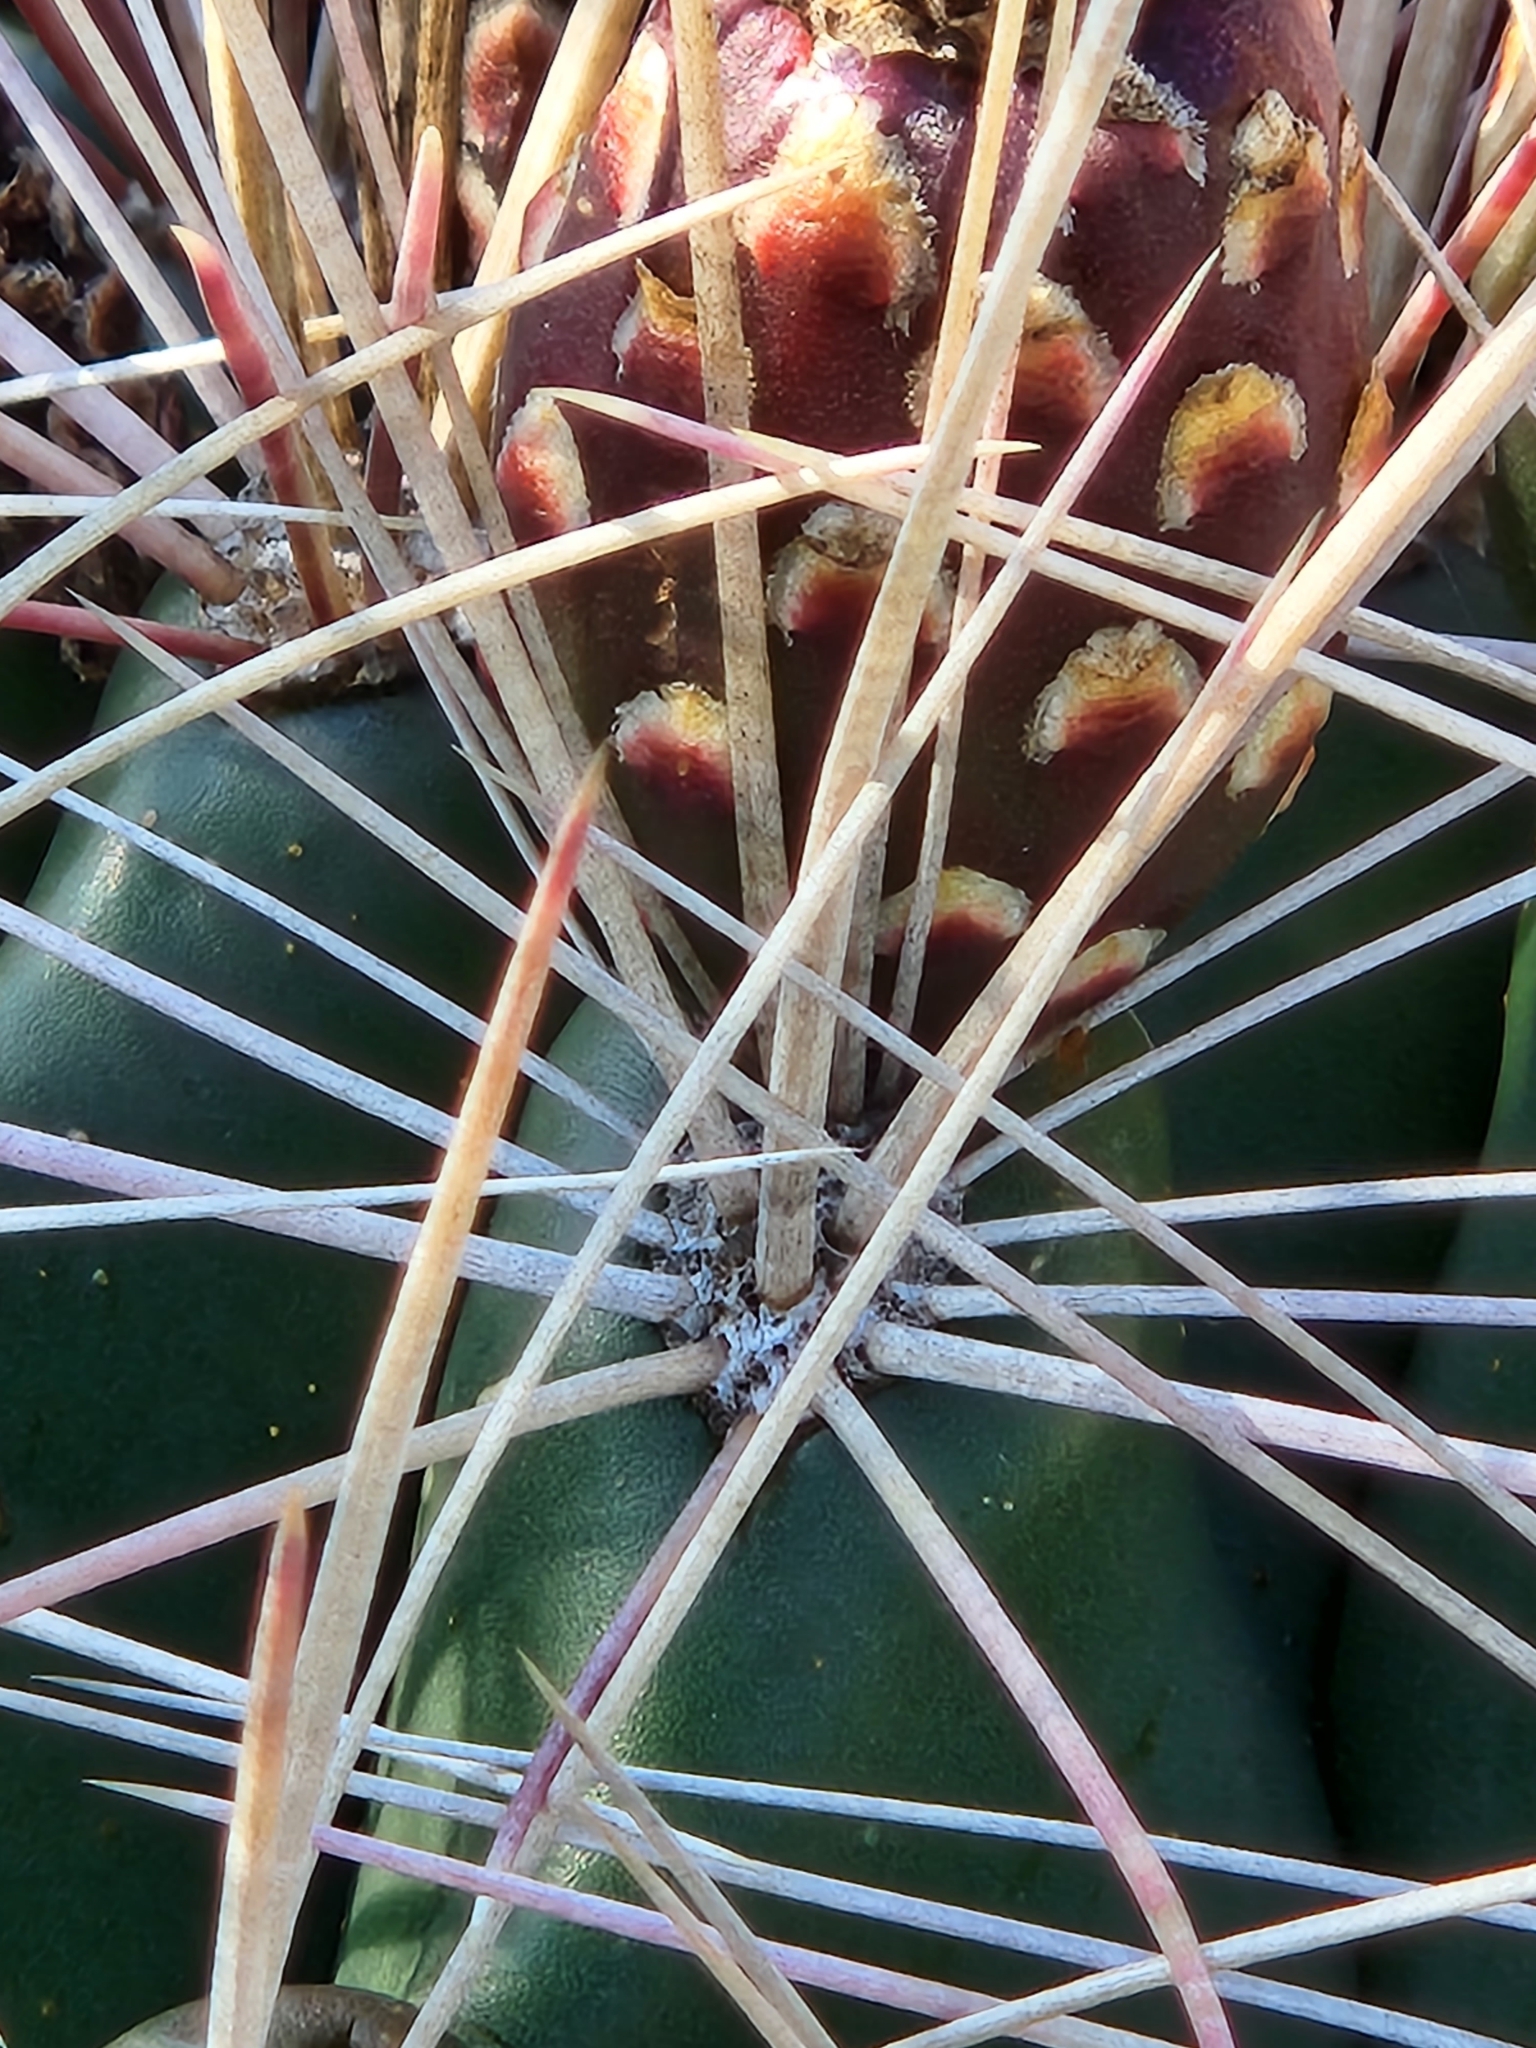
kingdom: Plantae
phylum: Tracheophyta
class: Magnoliopsida
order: Caryophyllales
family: Cactaceae
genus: Bisnaga
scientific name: Bisnaga hamatacantha
